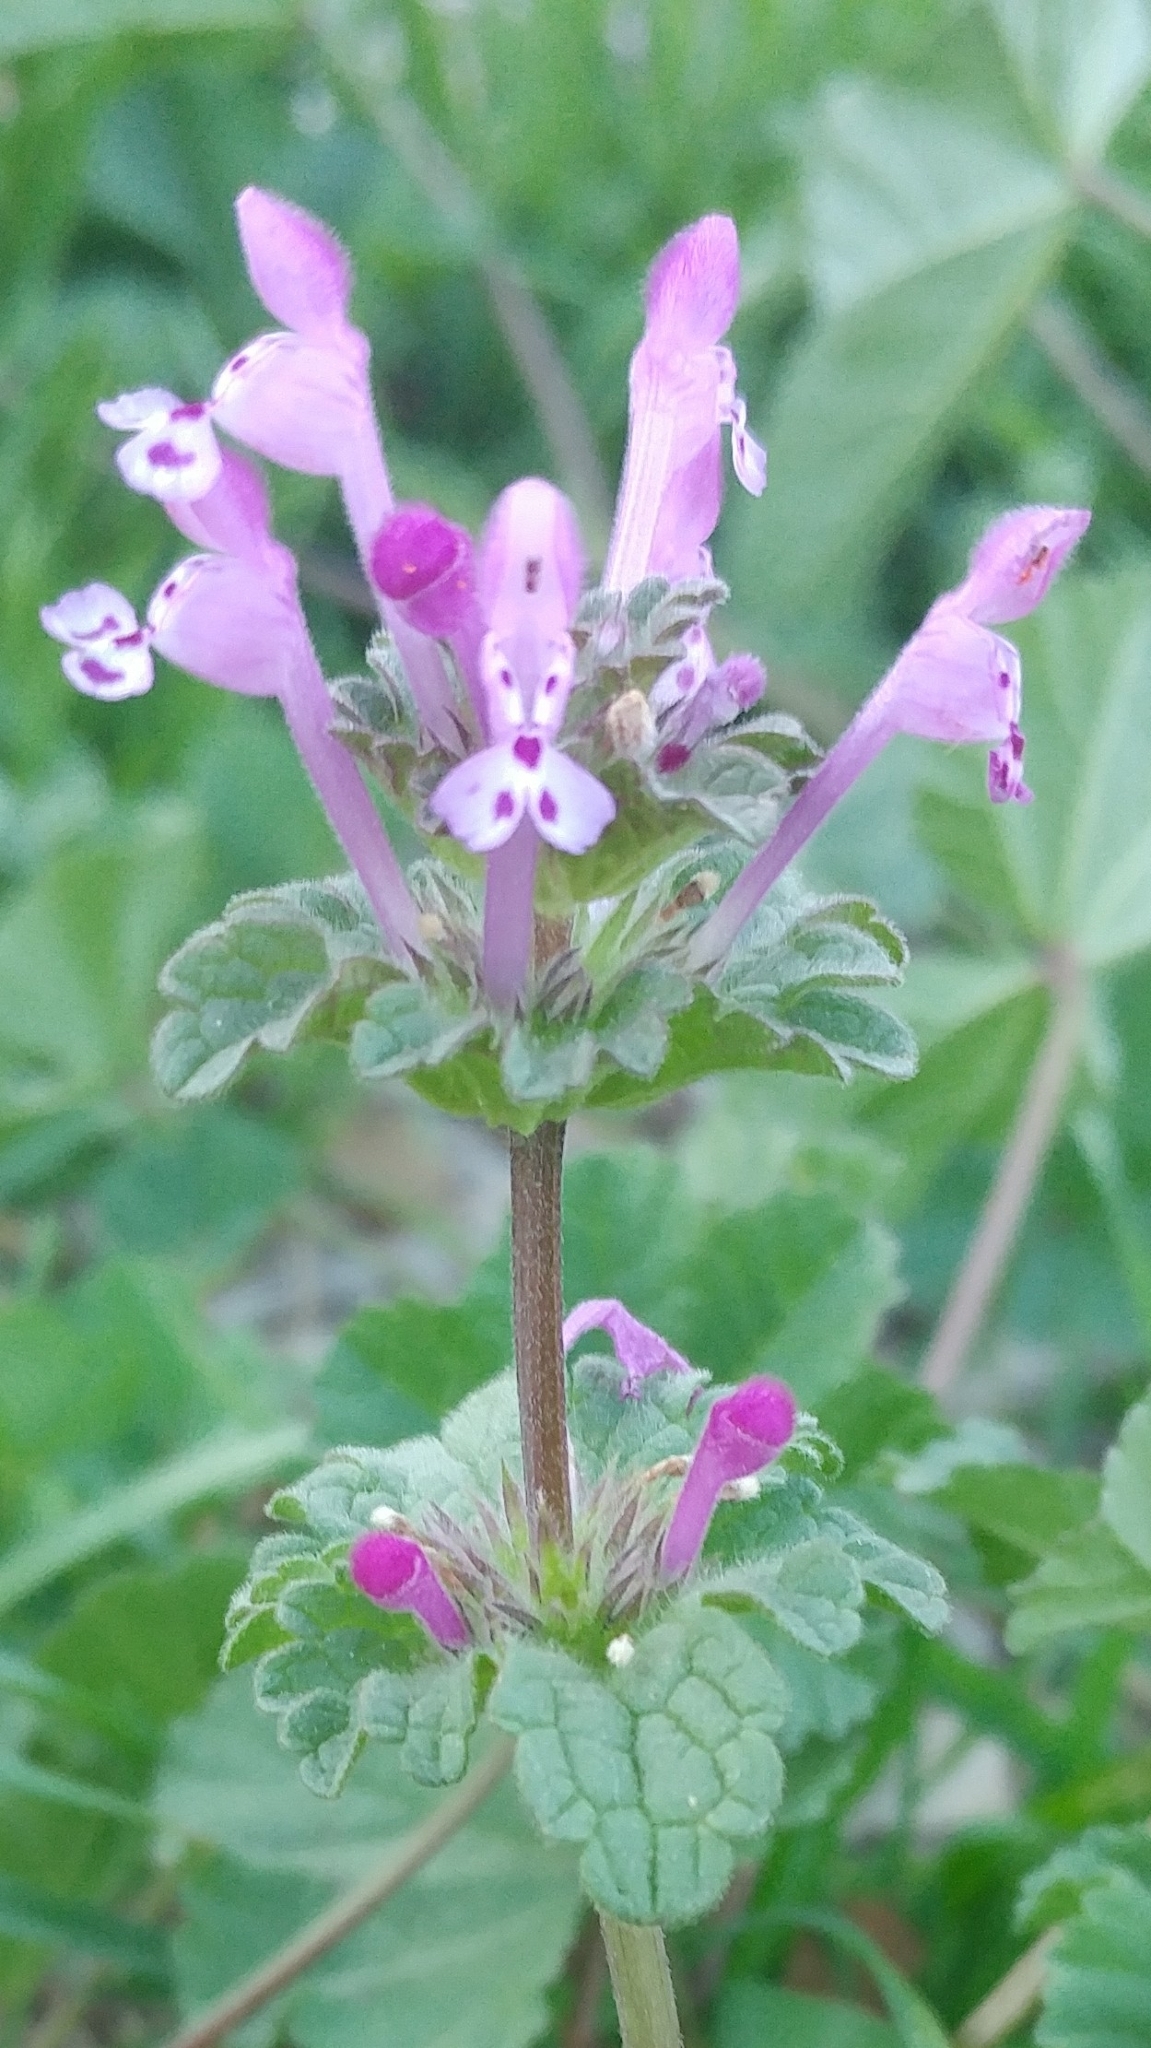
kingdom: Plantae
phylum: Tracheophyta
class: Magnoliopsida
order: Lamiales
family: Lamiaceae
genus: Lamium
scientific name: Lamium amplexicaule
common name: Henbit dead-nettle
